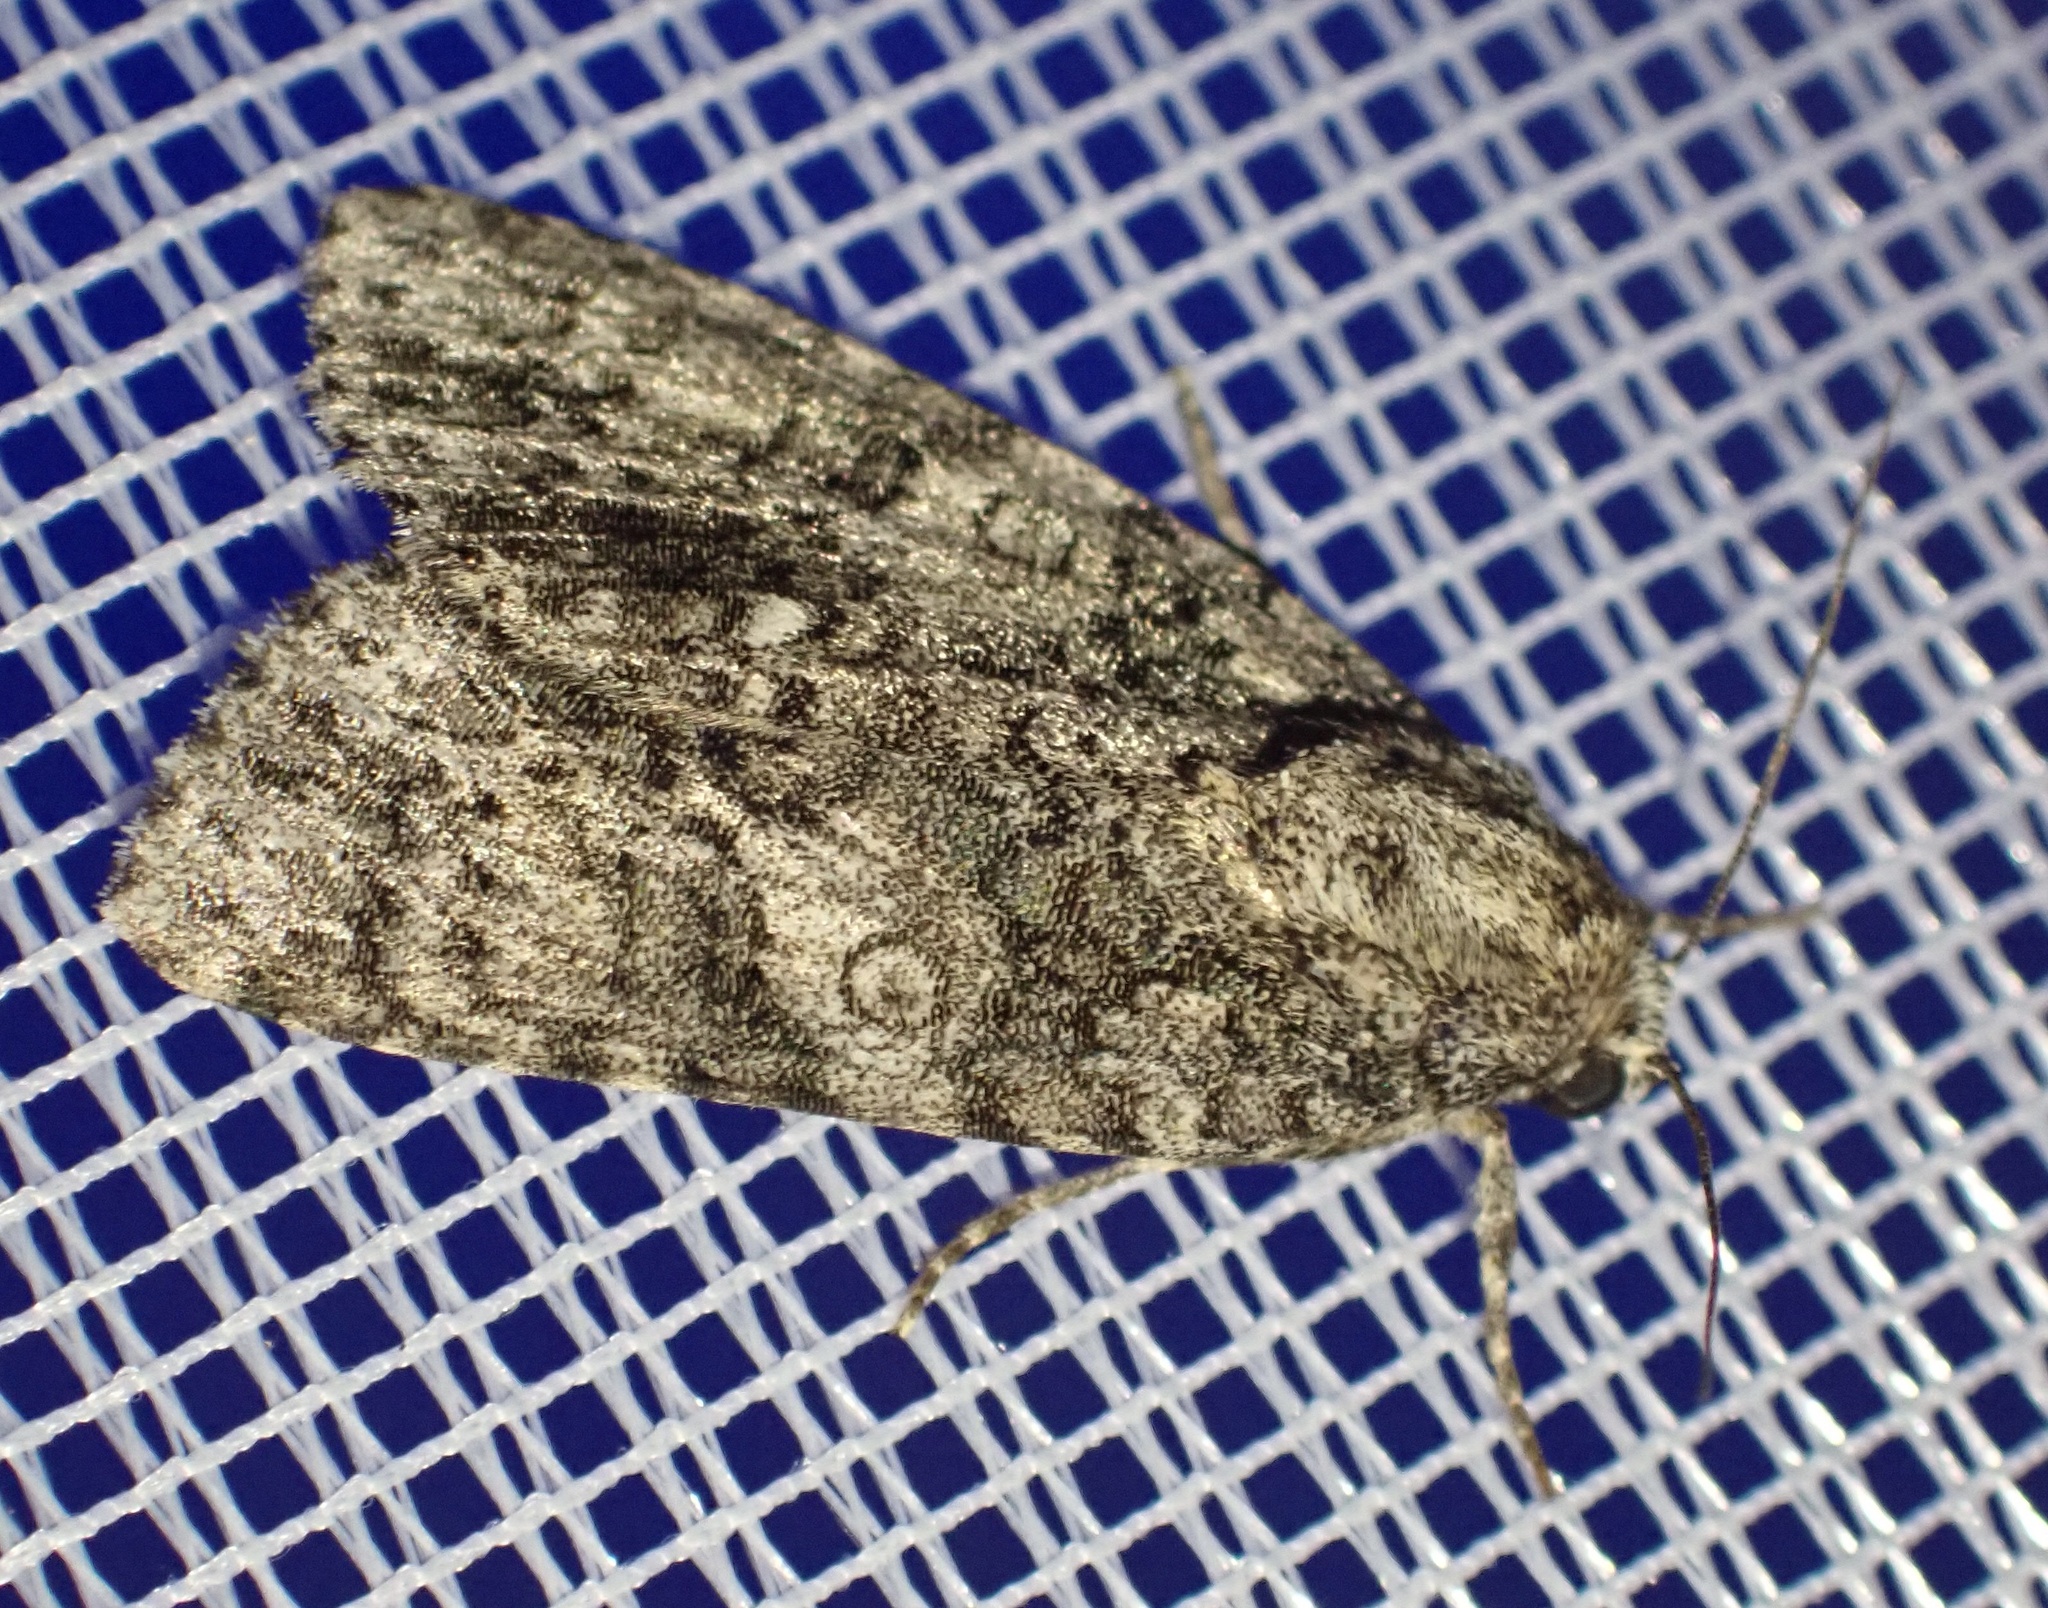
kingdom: Animalia
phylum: Arthropoda
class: Insecta
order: Lepidoptera
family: Noctuidae
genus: Acronicta
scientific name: Acronicta rumicis
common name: Knot grass
